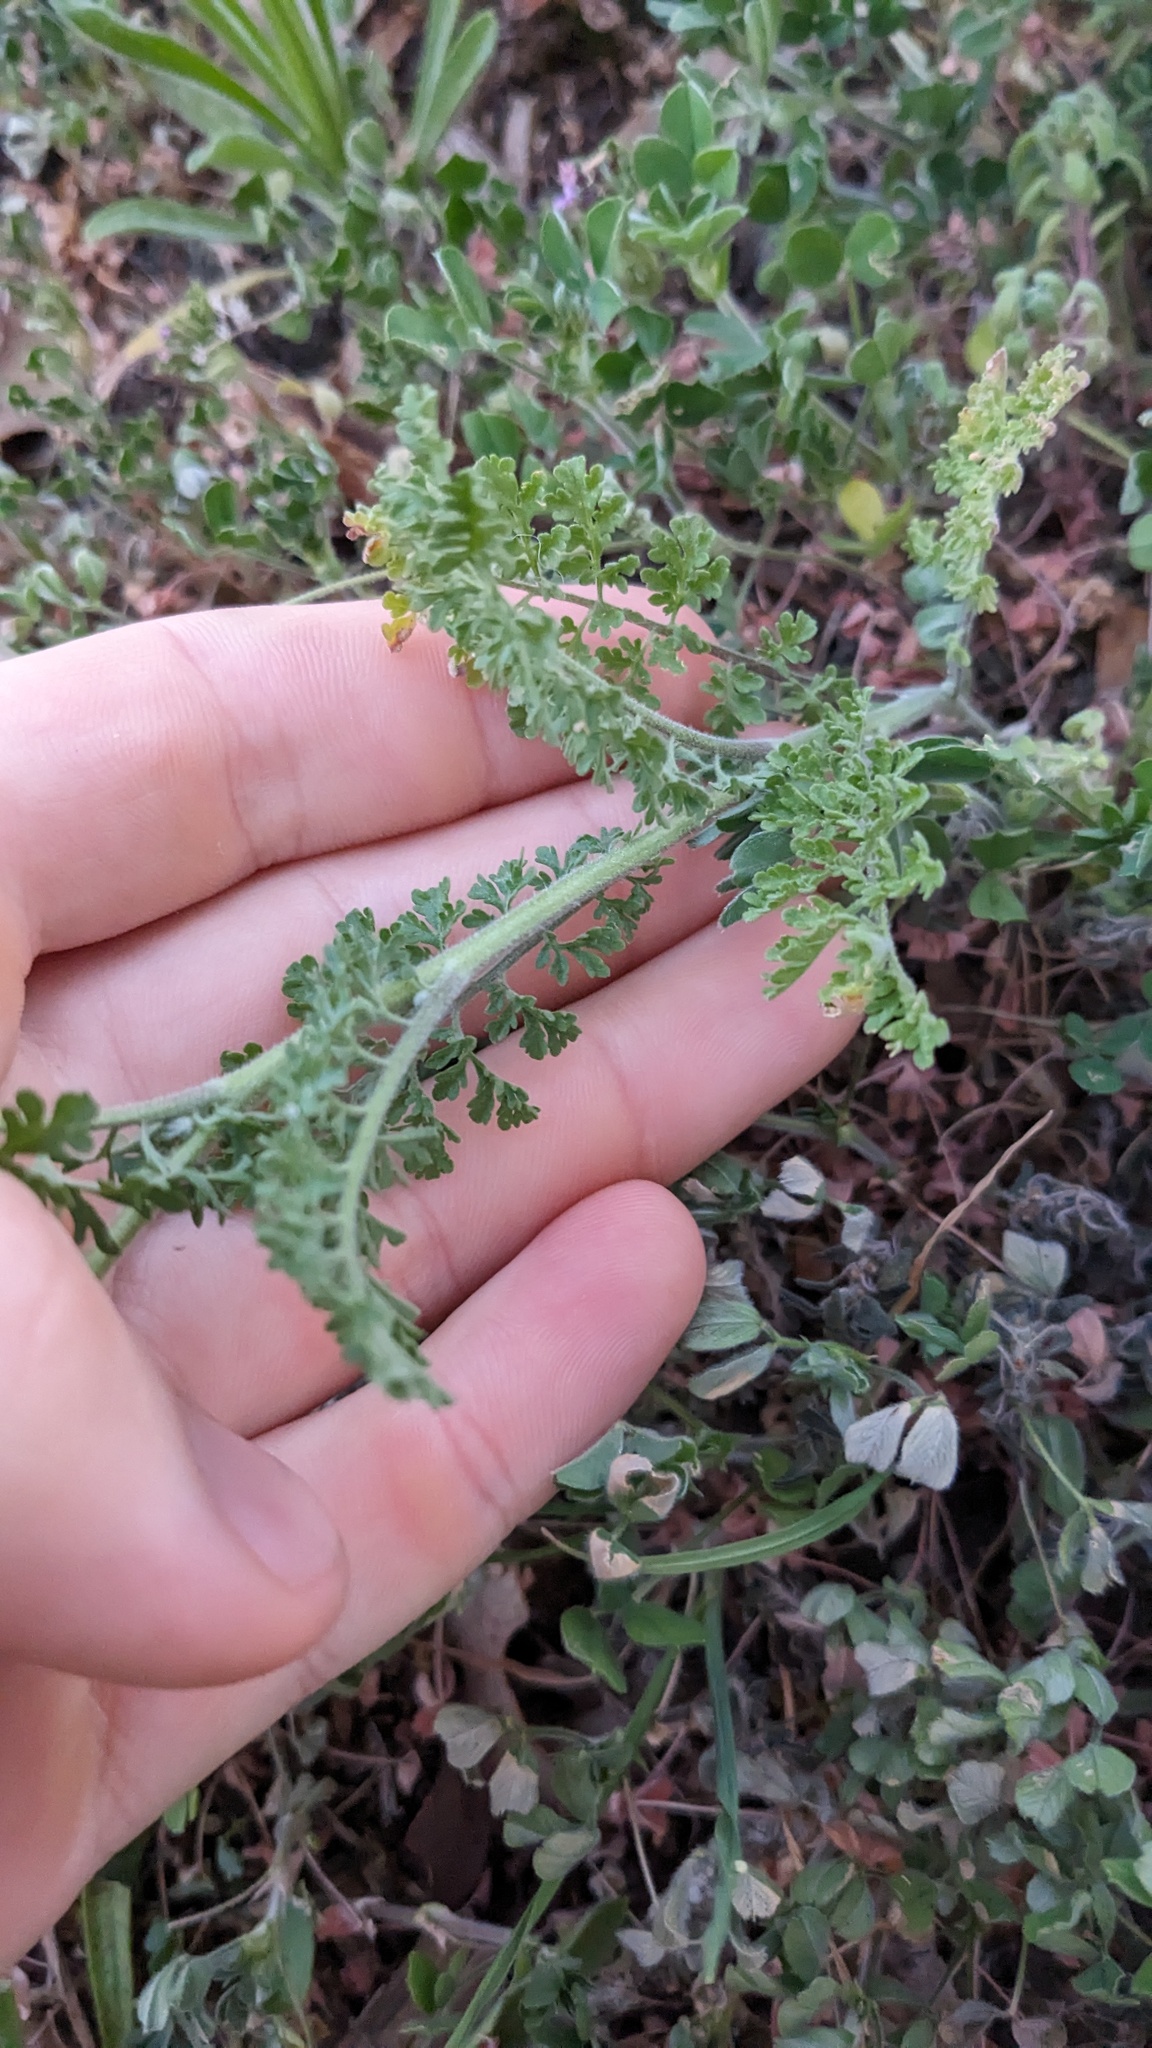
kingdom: Plantae
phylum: Tracheophyta
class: Magnoliopsida
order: Brassicales
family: Brassicaceae
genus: Descurainia
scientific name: Descurainia pinnata
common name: Western tansy mustard
